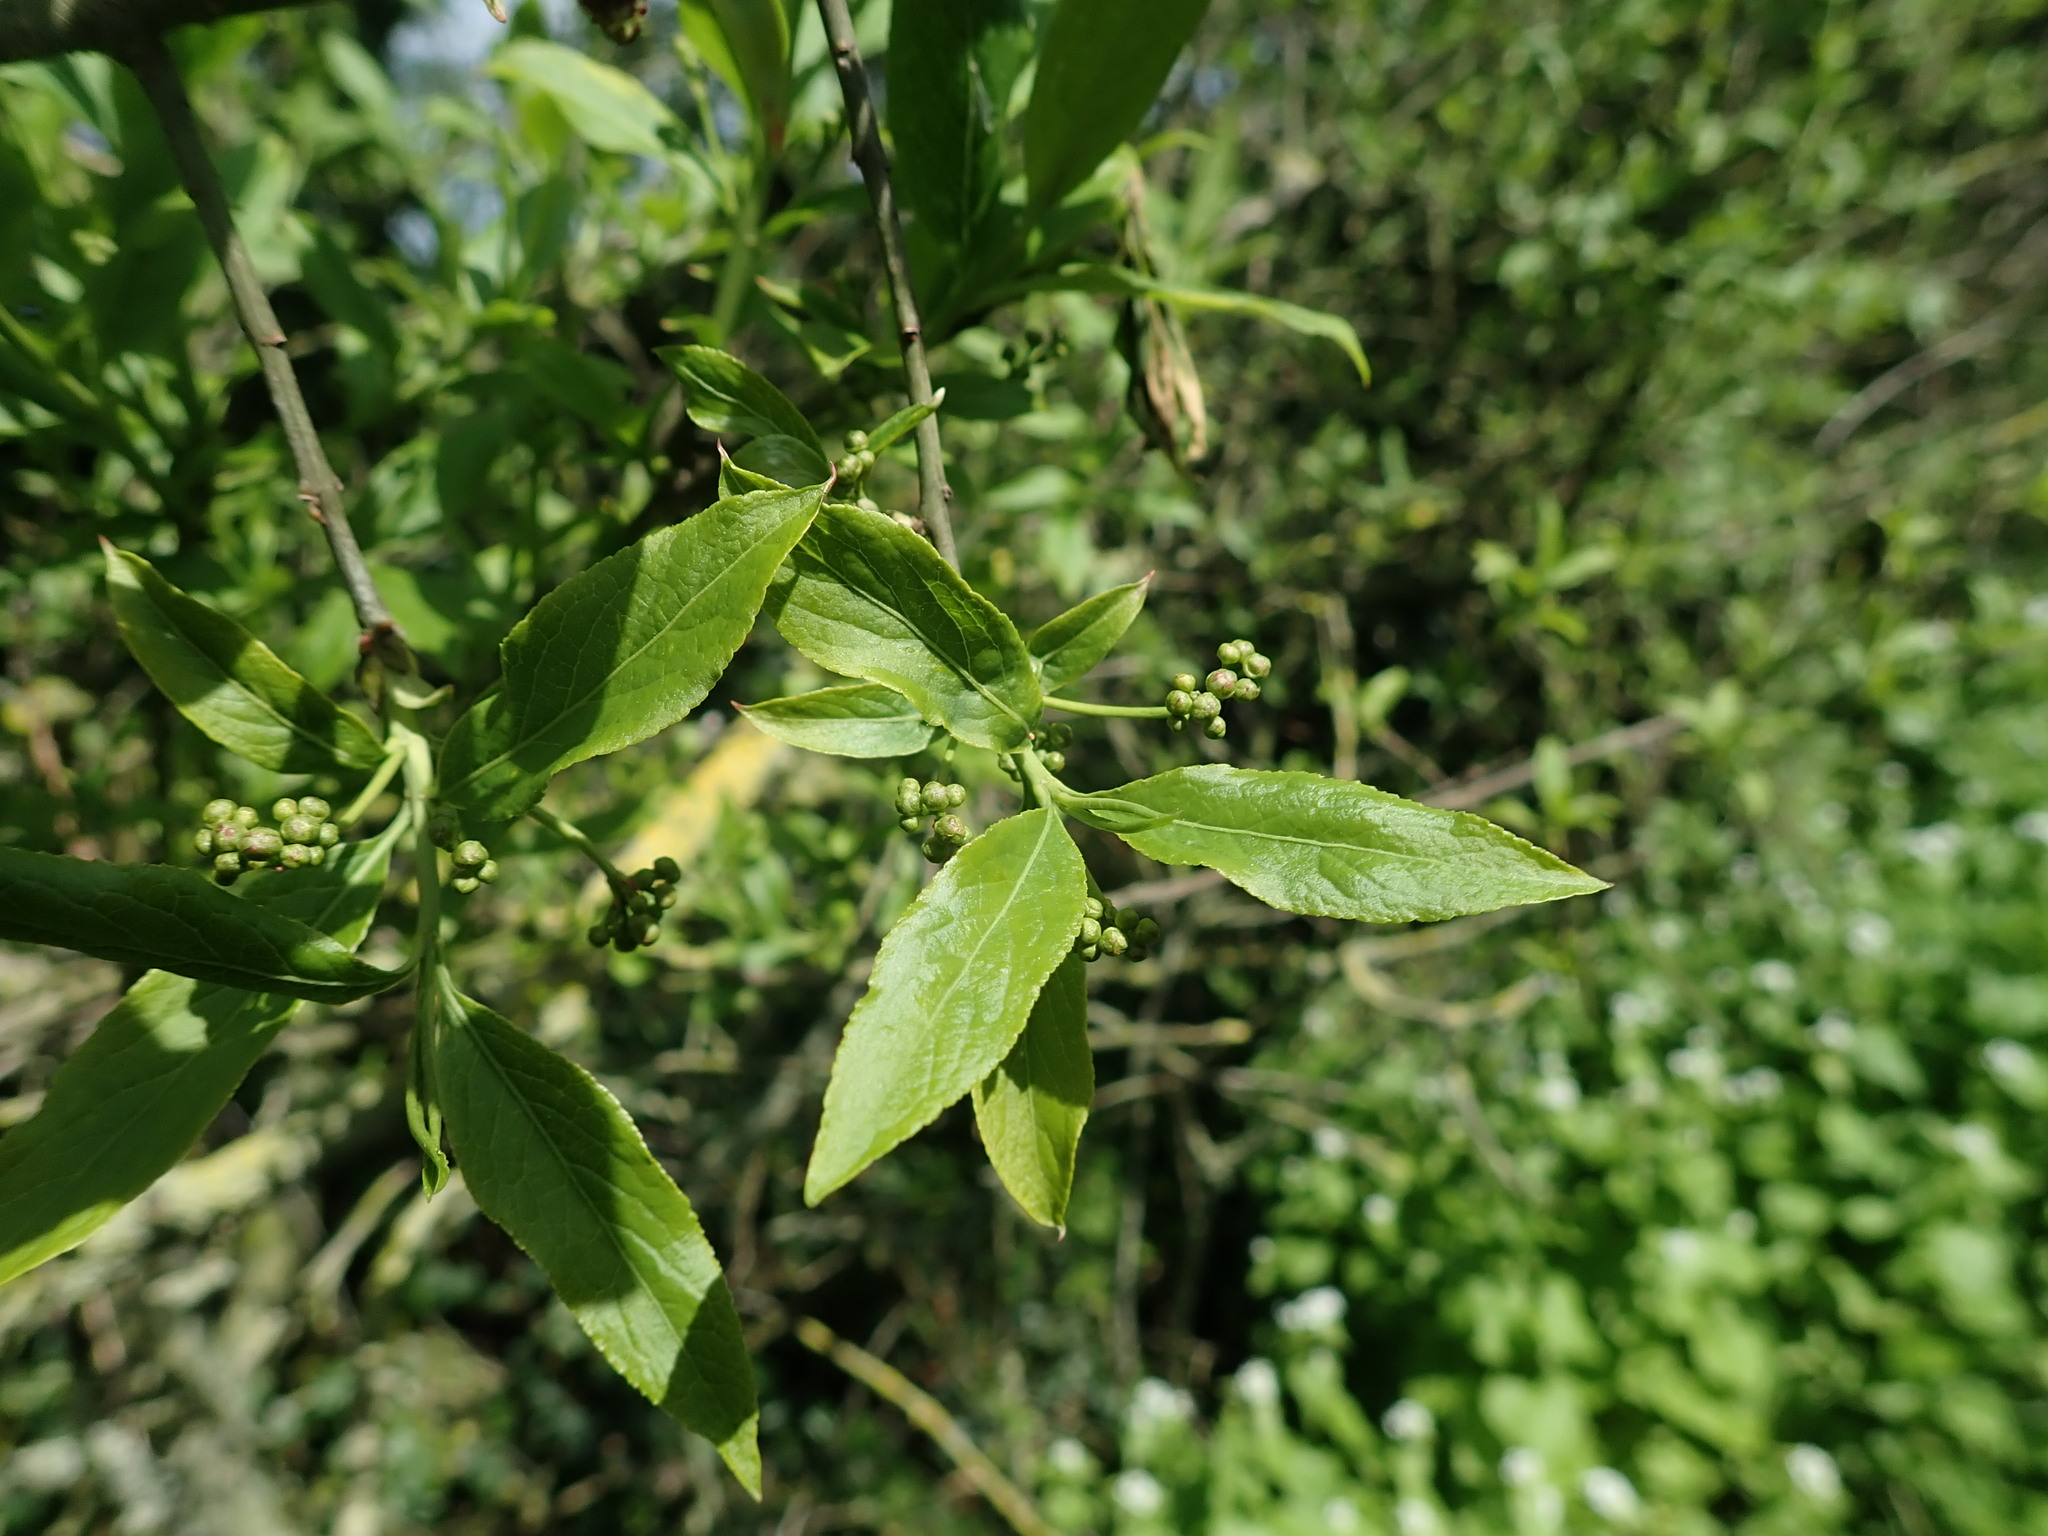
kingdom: Plantae
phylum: Tracheophyta
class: Magnoliopsida
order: Celastrales
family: Celastraceae
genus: Euonymus
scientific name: Euonymus europaeus
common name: Spindle
